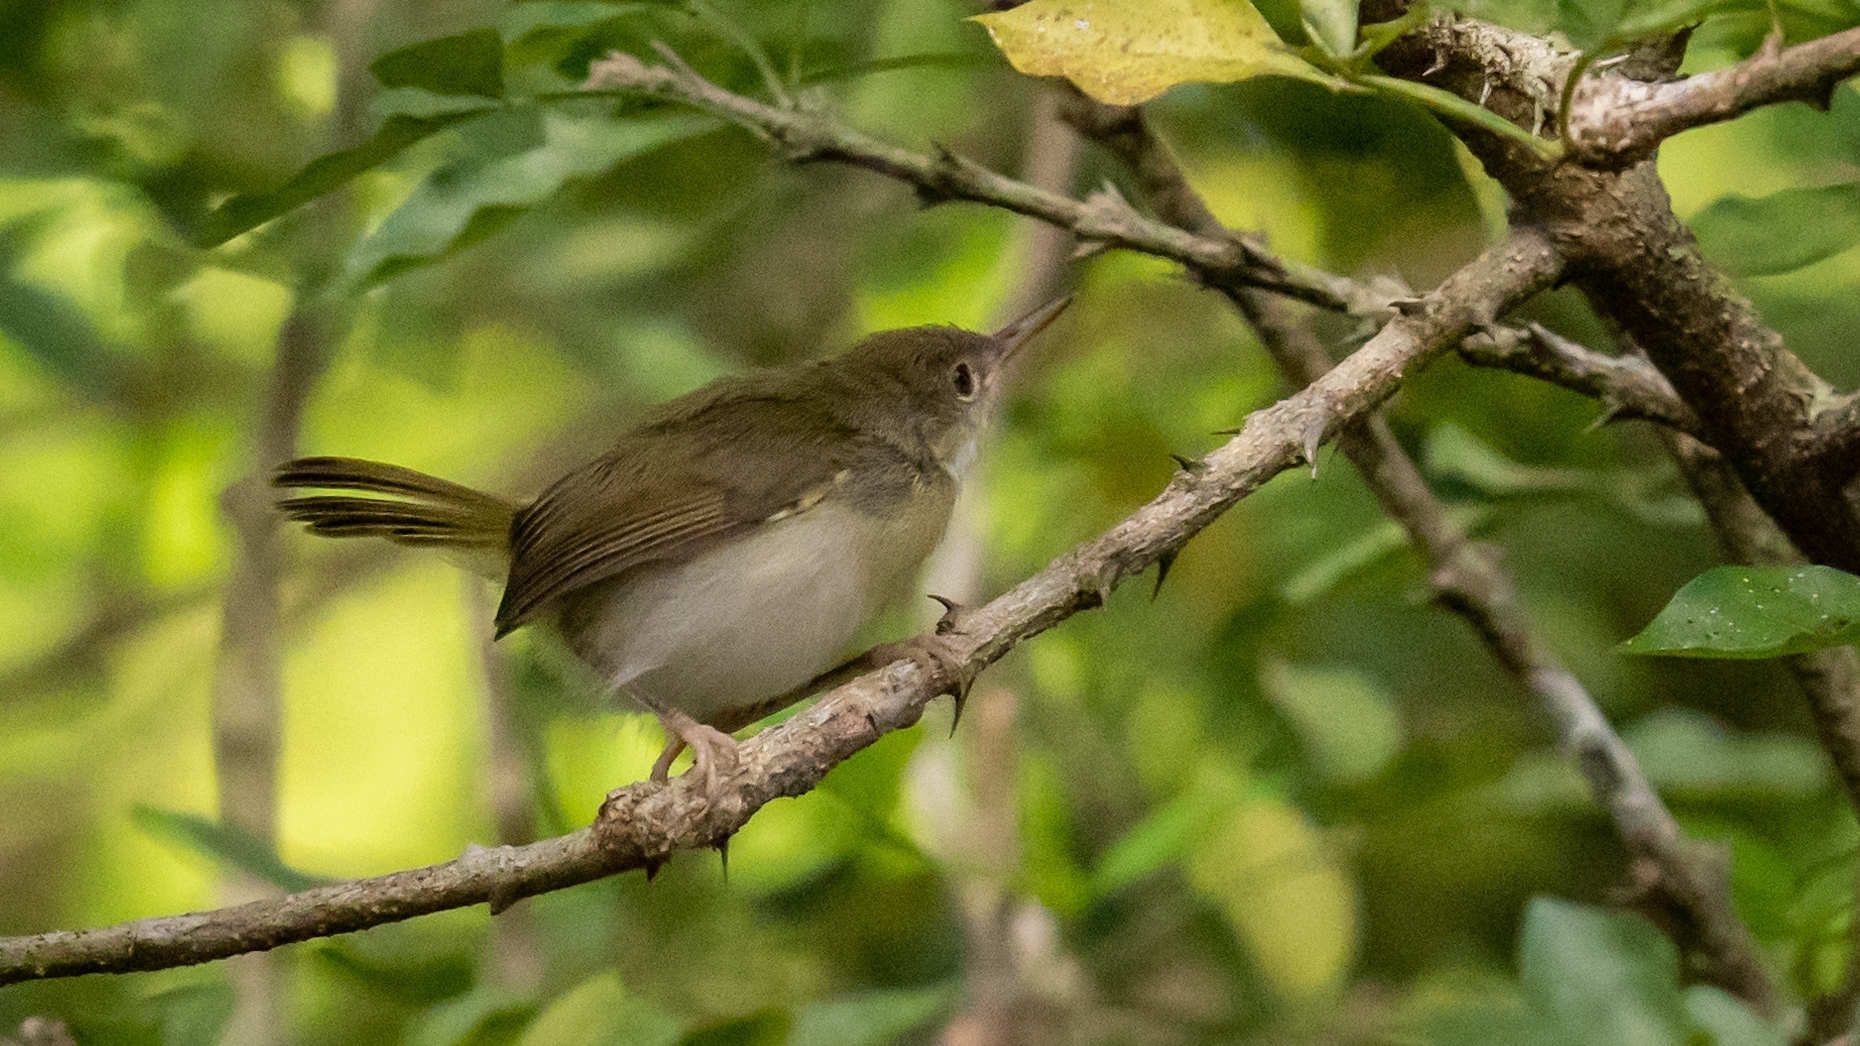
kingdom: Animalia
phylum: Chordata
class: Aves
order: Passeriformes
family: Cisticolidae
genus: Orthotomus
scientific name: Orthotomus atrogularis
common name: Dark-necked tailorbird
